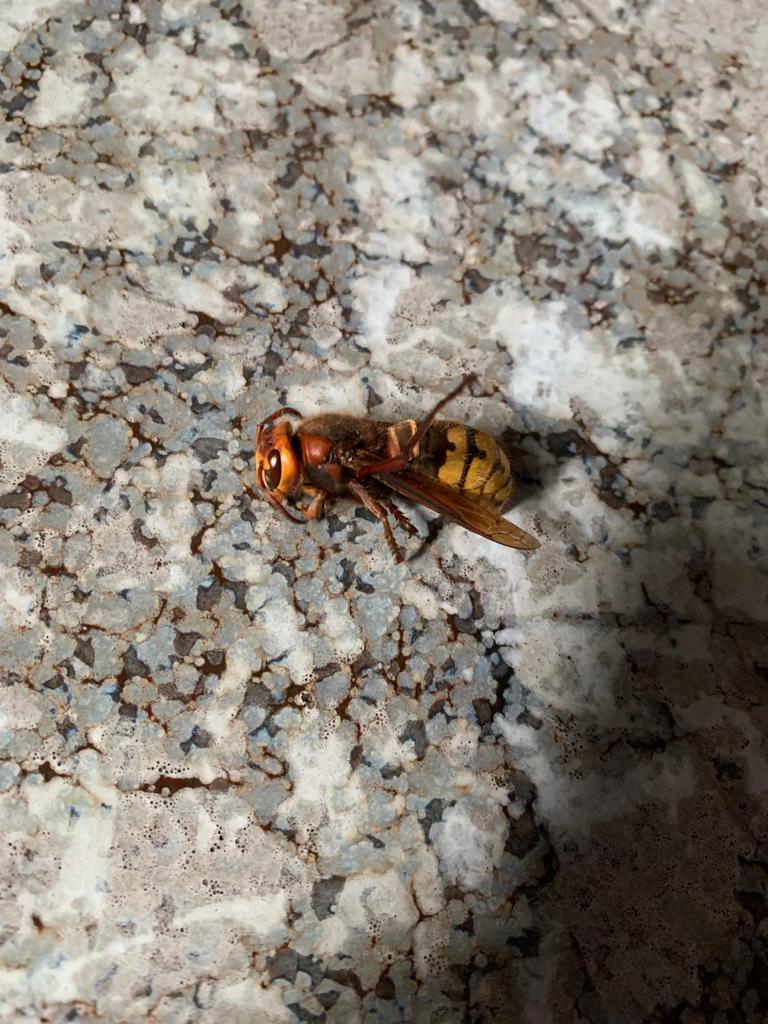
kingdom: Animalia
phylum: Arthropoda
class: Insecta
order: Hymenoptera
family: Vespidae
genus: Vespa
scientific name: Vespa crabro
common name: Hornet
